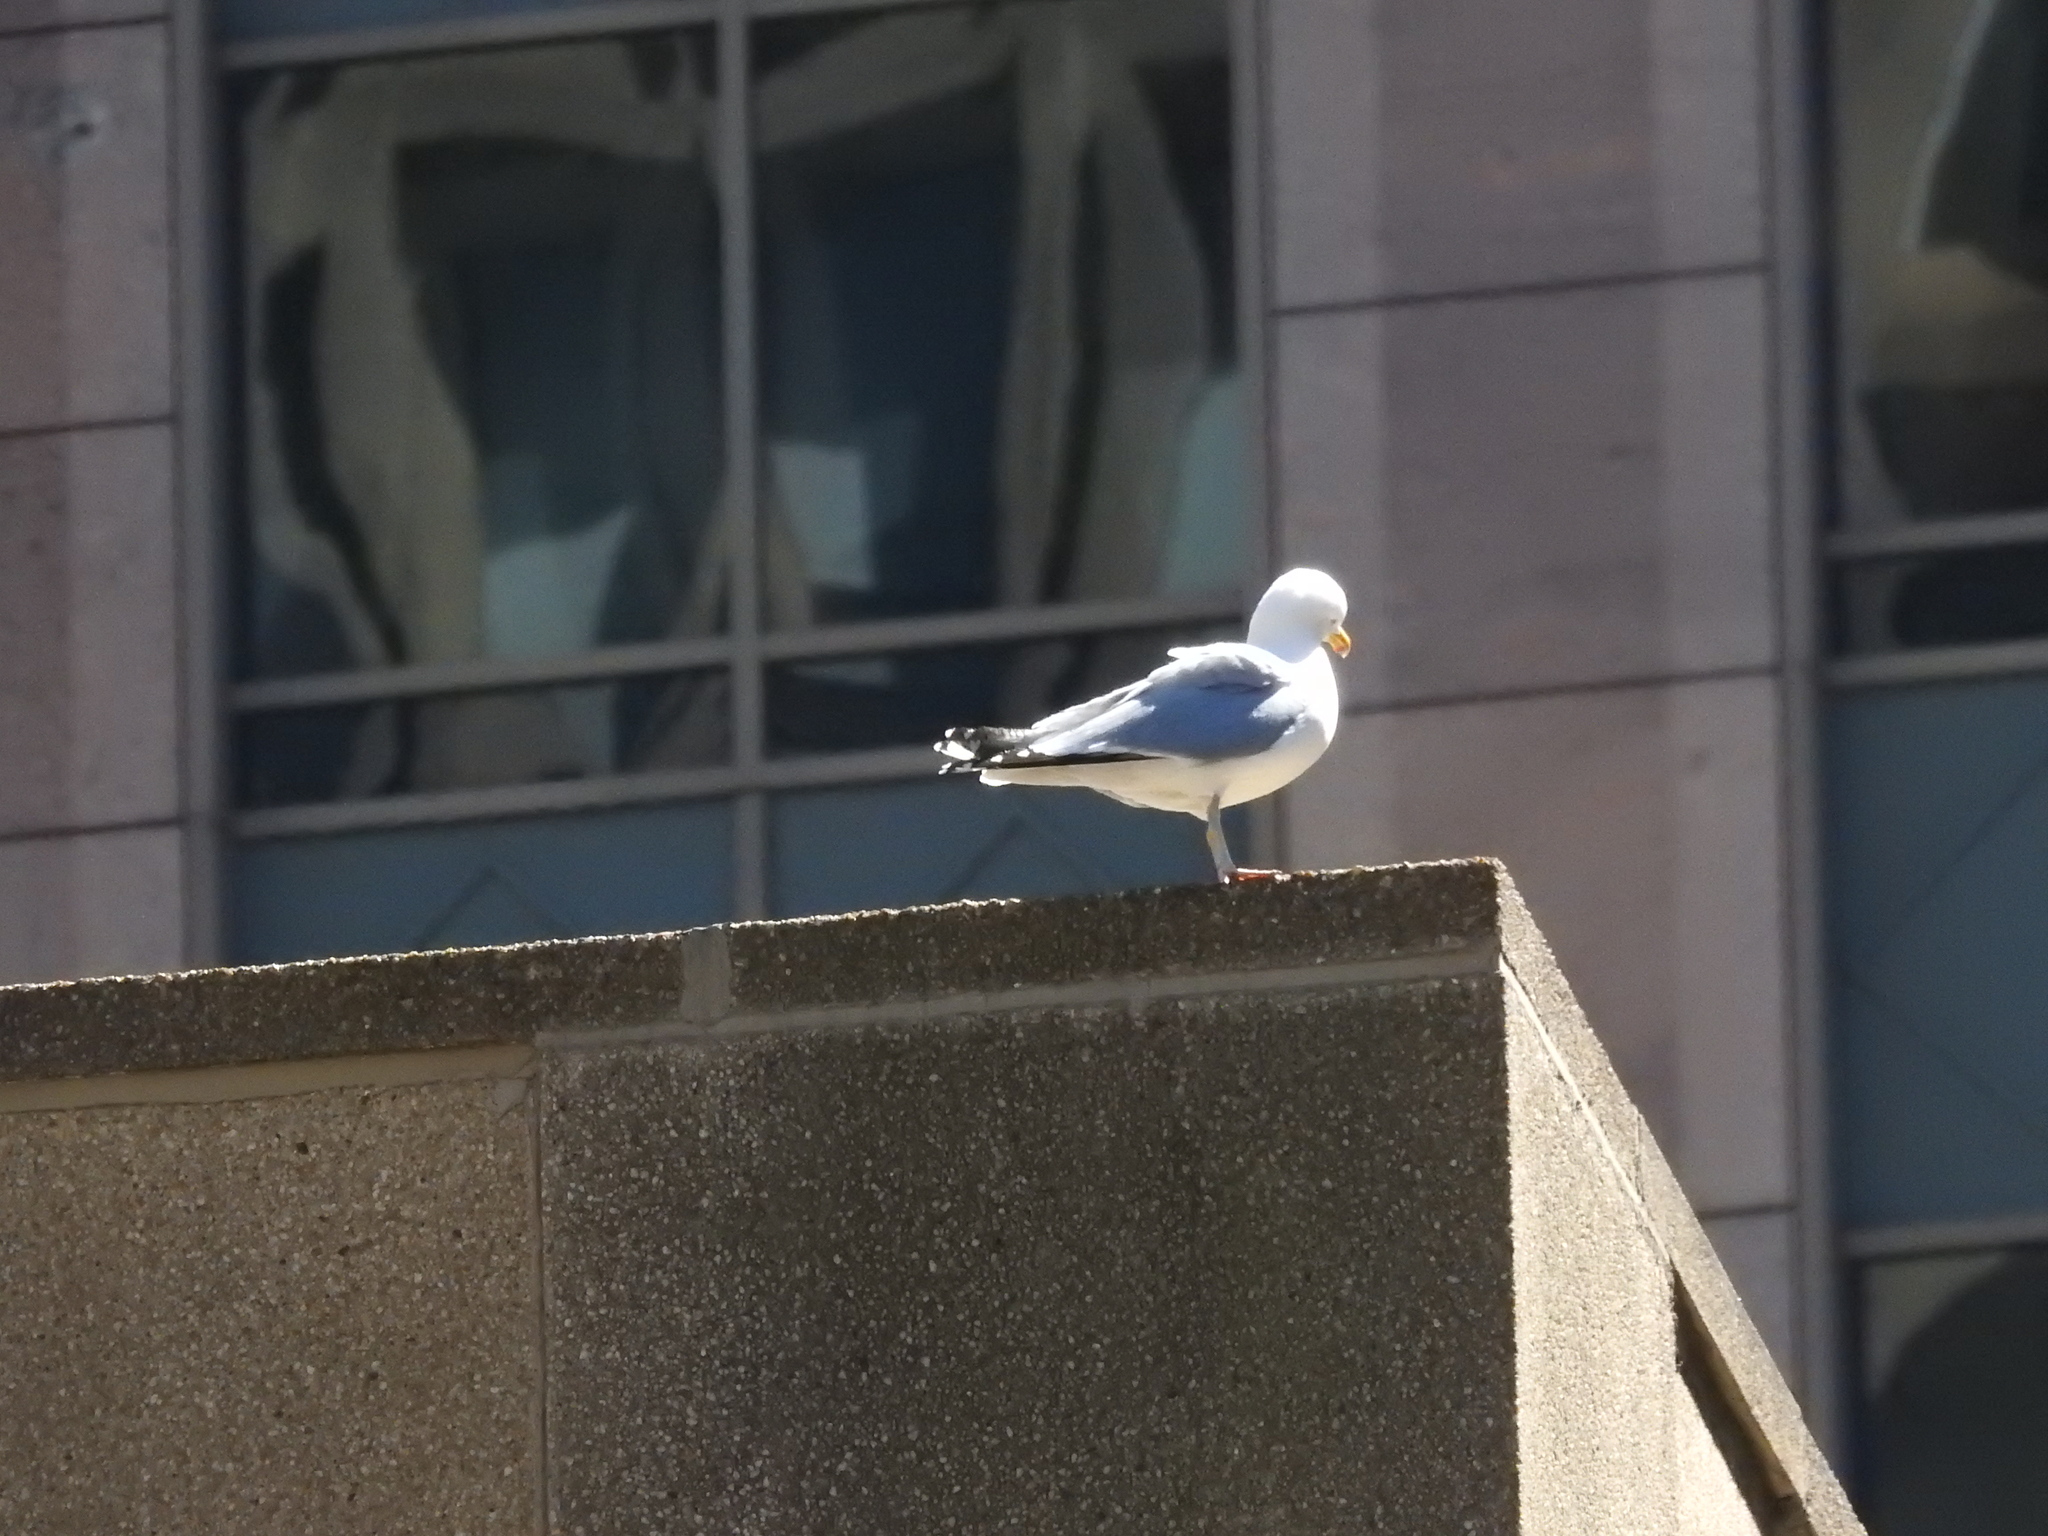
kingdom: Animalia
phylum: Chordata
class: Aves
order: Charadriiformes
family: Laridae
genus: Larus
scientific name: Larus argentatus
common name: Herring gull
